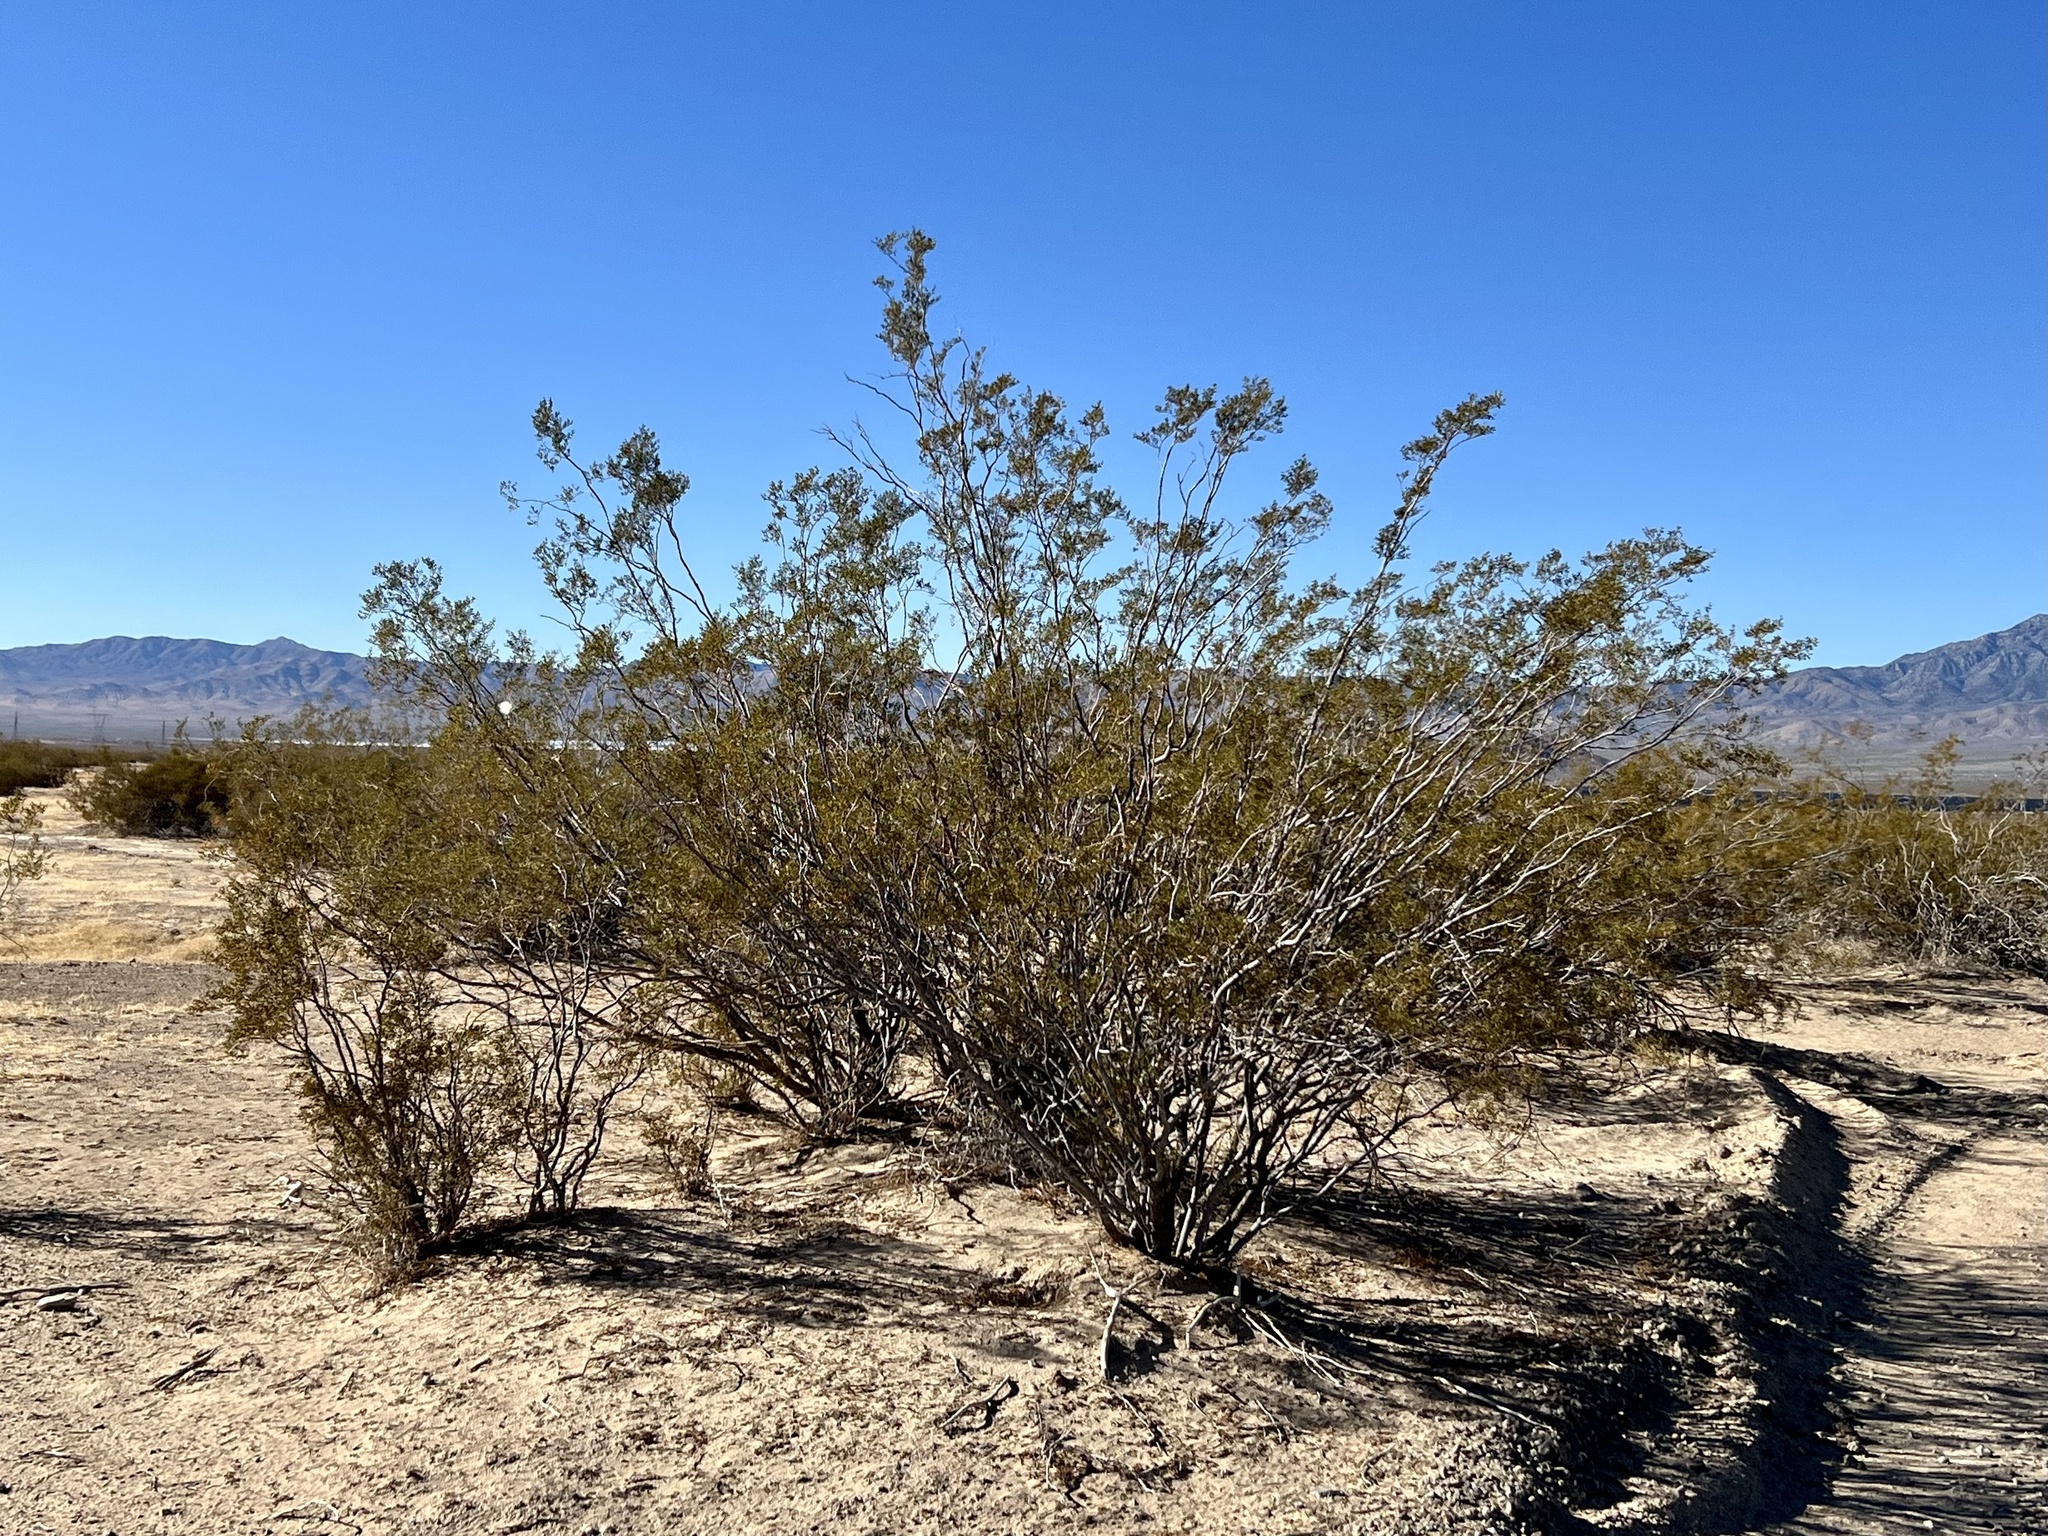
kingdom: Plantae
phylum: Tracheophyta
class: Magnoliopsida
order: Zygophyllales
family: Zygophyllaceae
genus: Larrea
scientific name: Larrea tridentata
